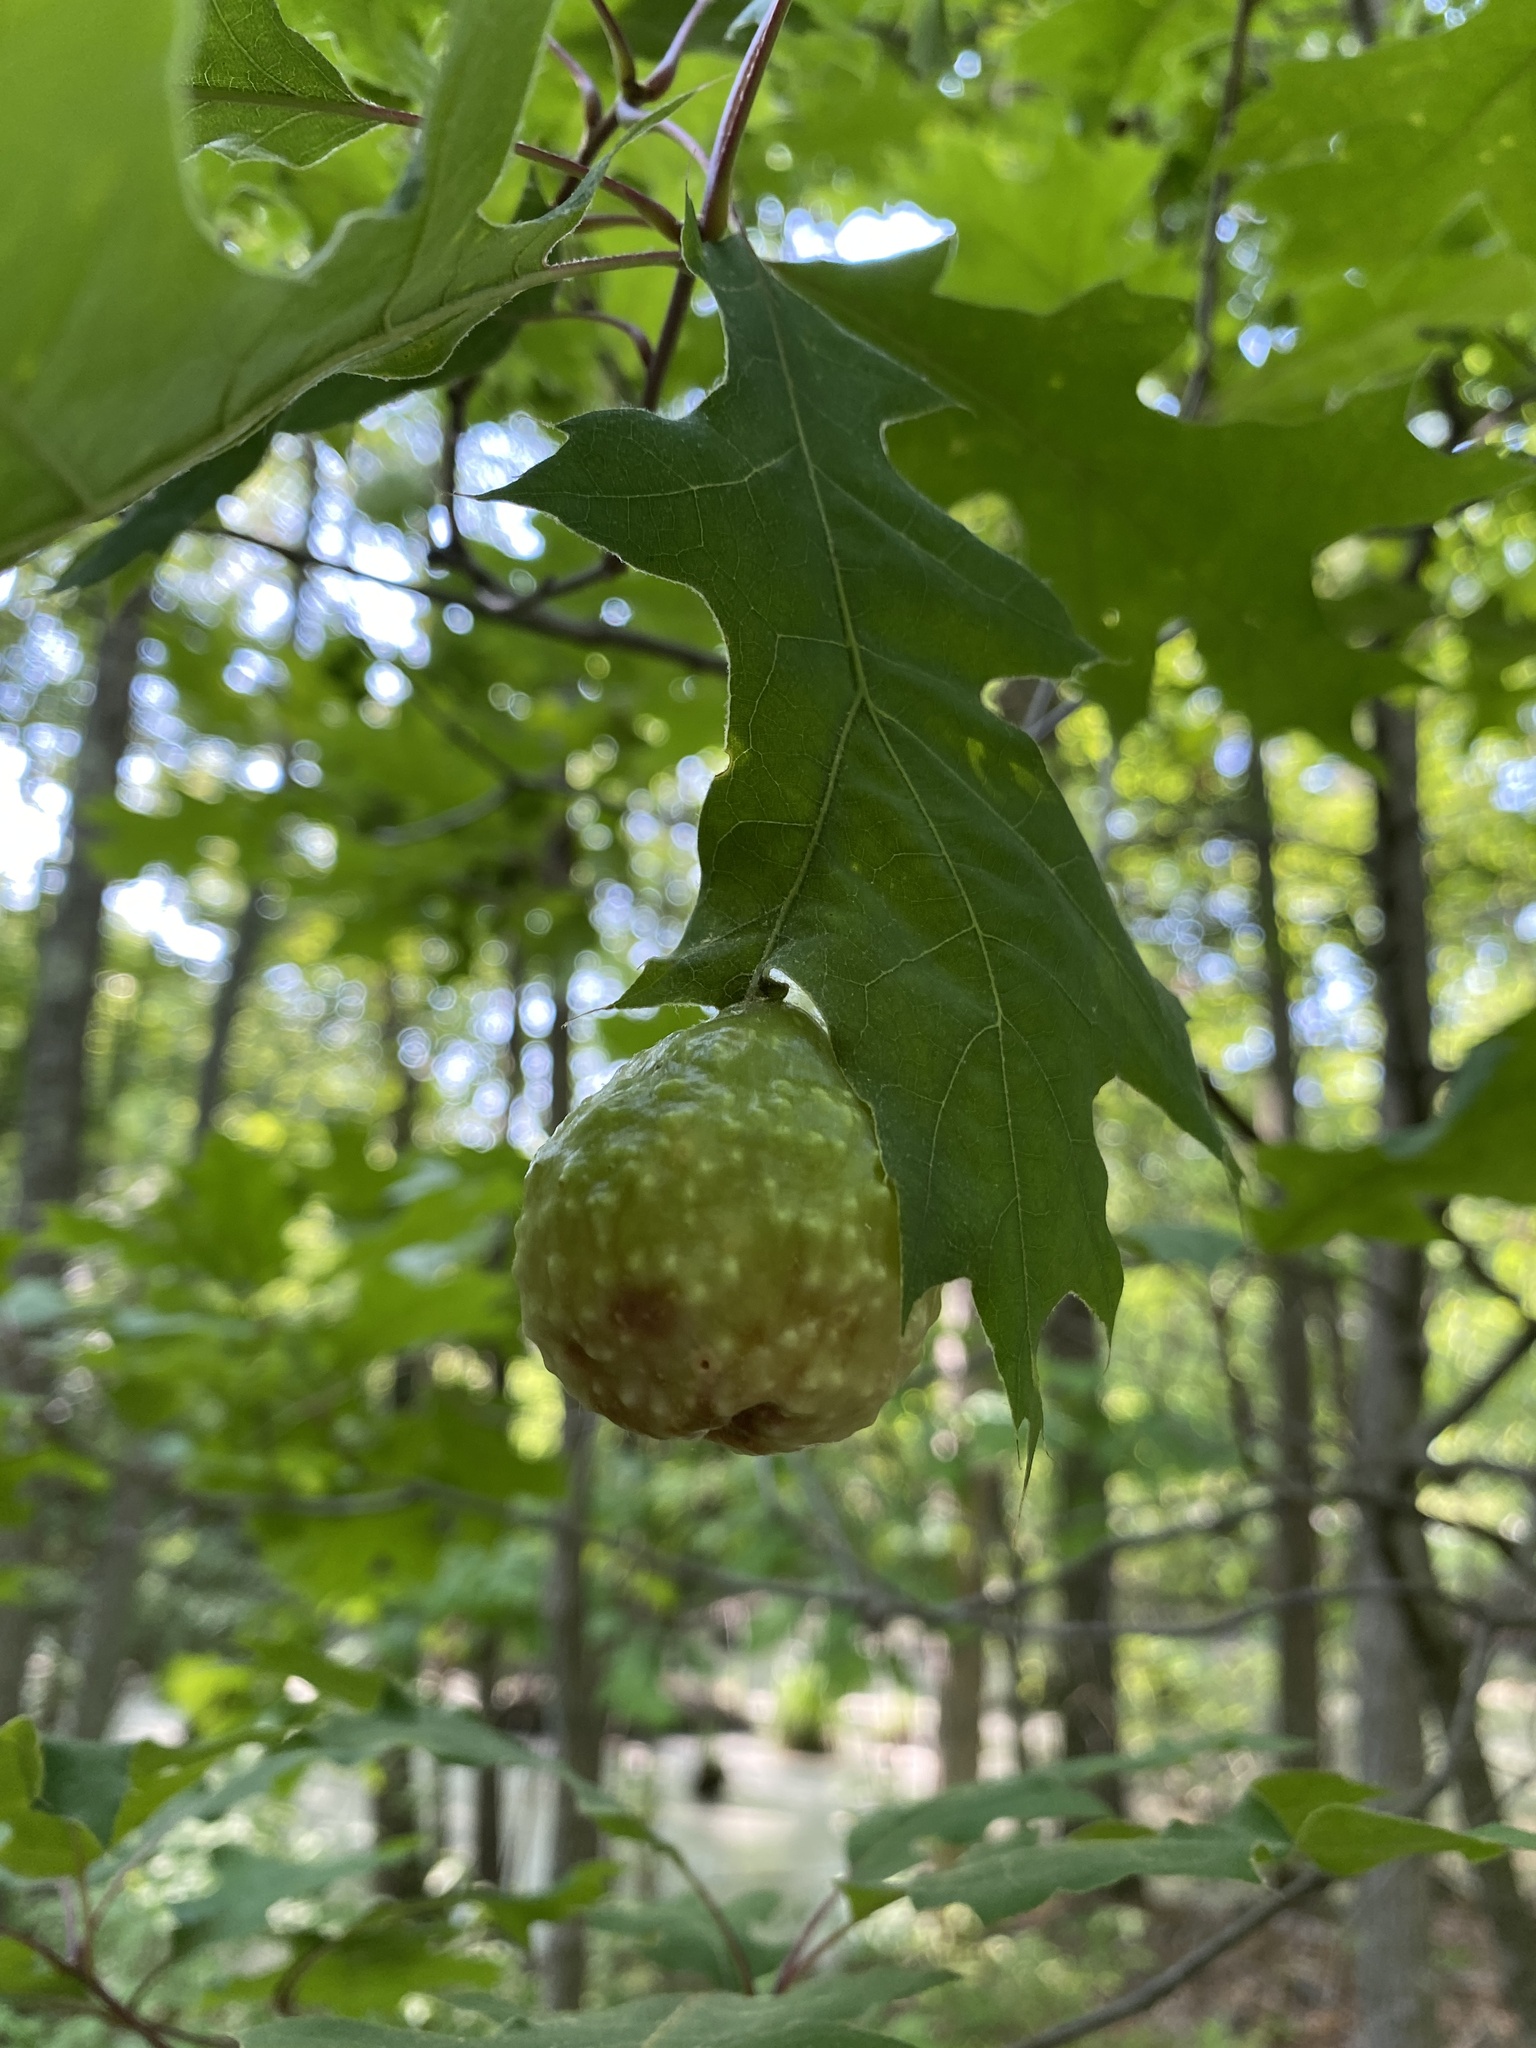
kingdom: Animalia
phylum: Arthropoda
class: Insecta
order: Hymenoptera
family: Cynipidae
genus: Amphibolips
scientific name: Amphibolips
